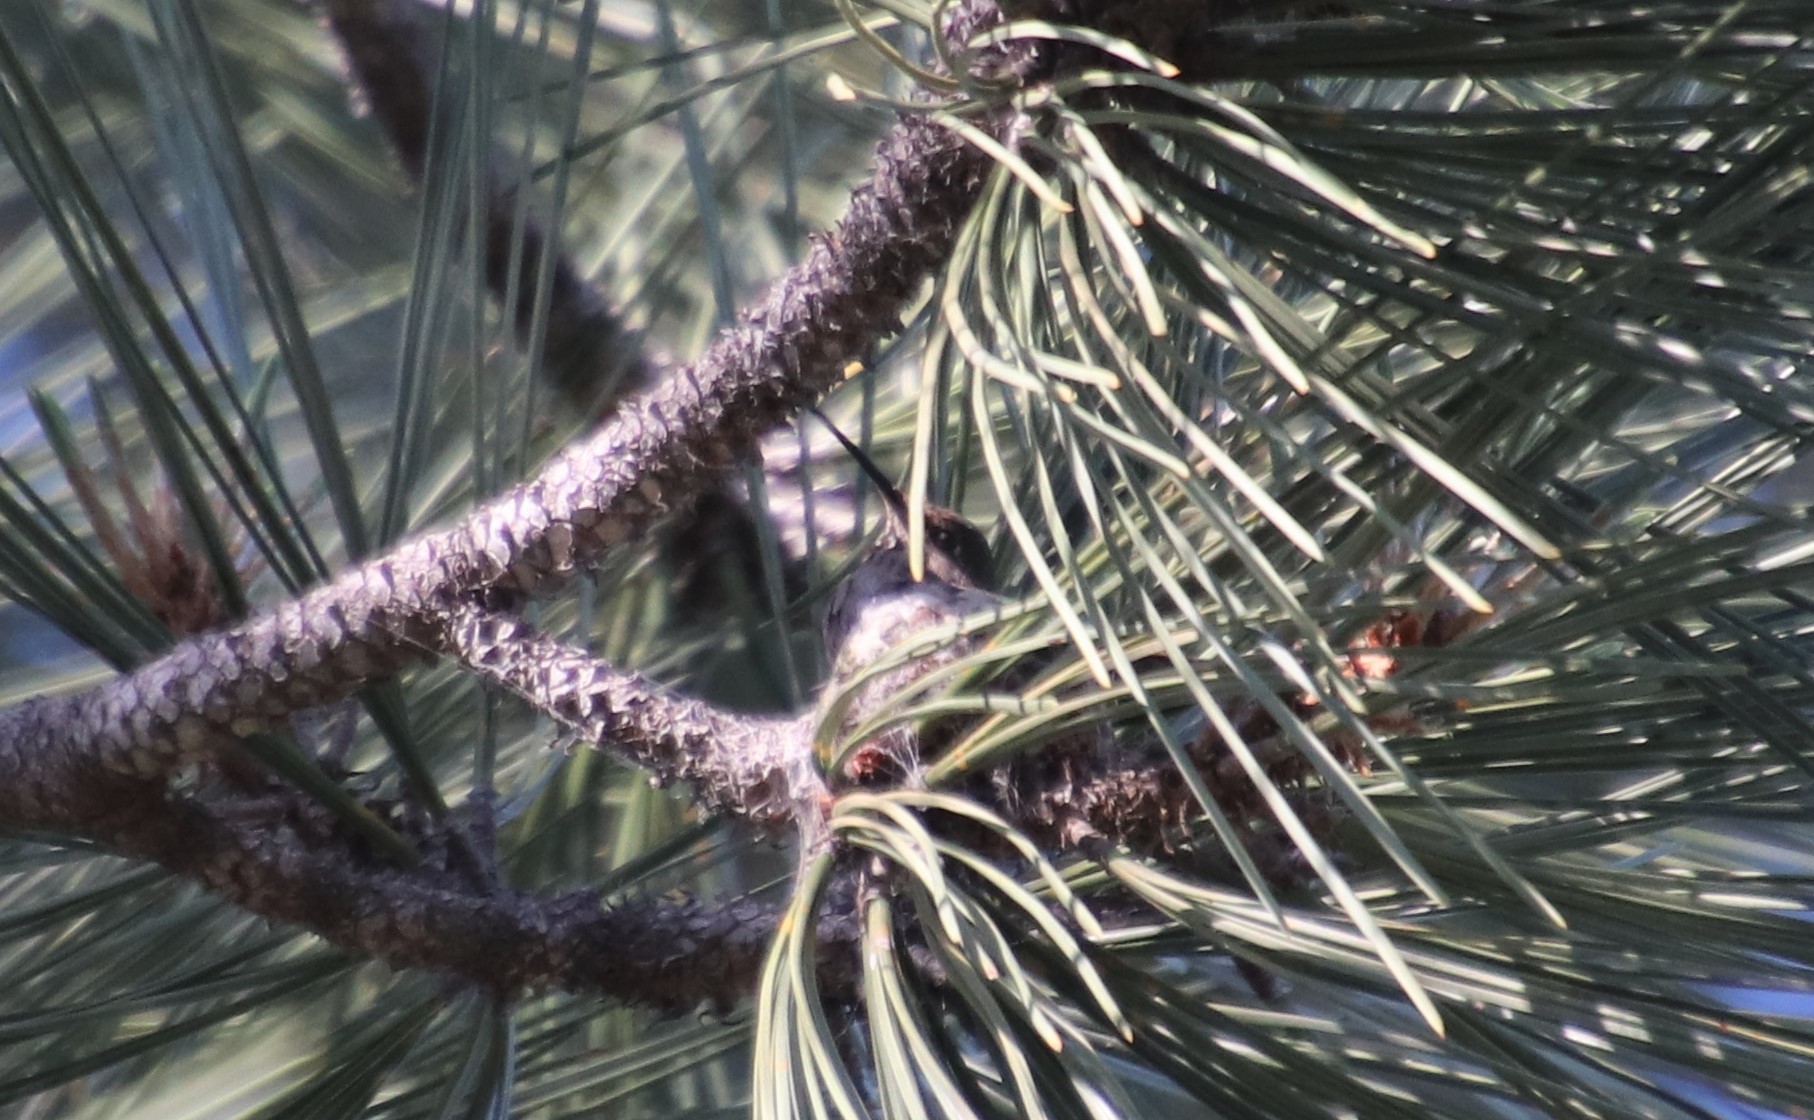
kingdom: Animalia
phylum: Chordata
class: Aves
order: Apodiformes
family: Trochilidae
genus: Calypte
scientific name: Calypte anna
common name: Anna's hummingbird
